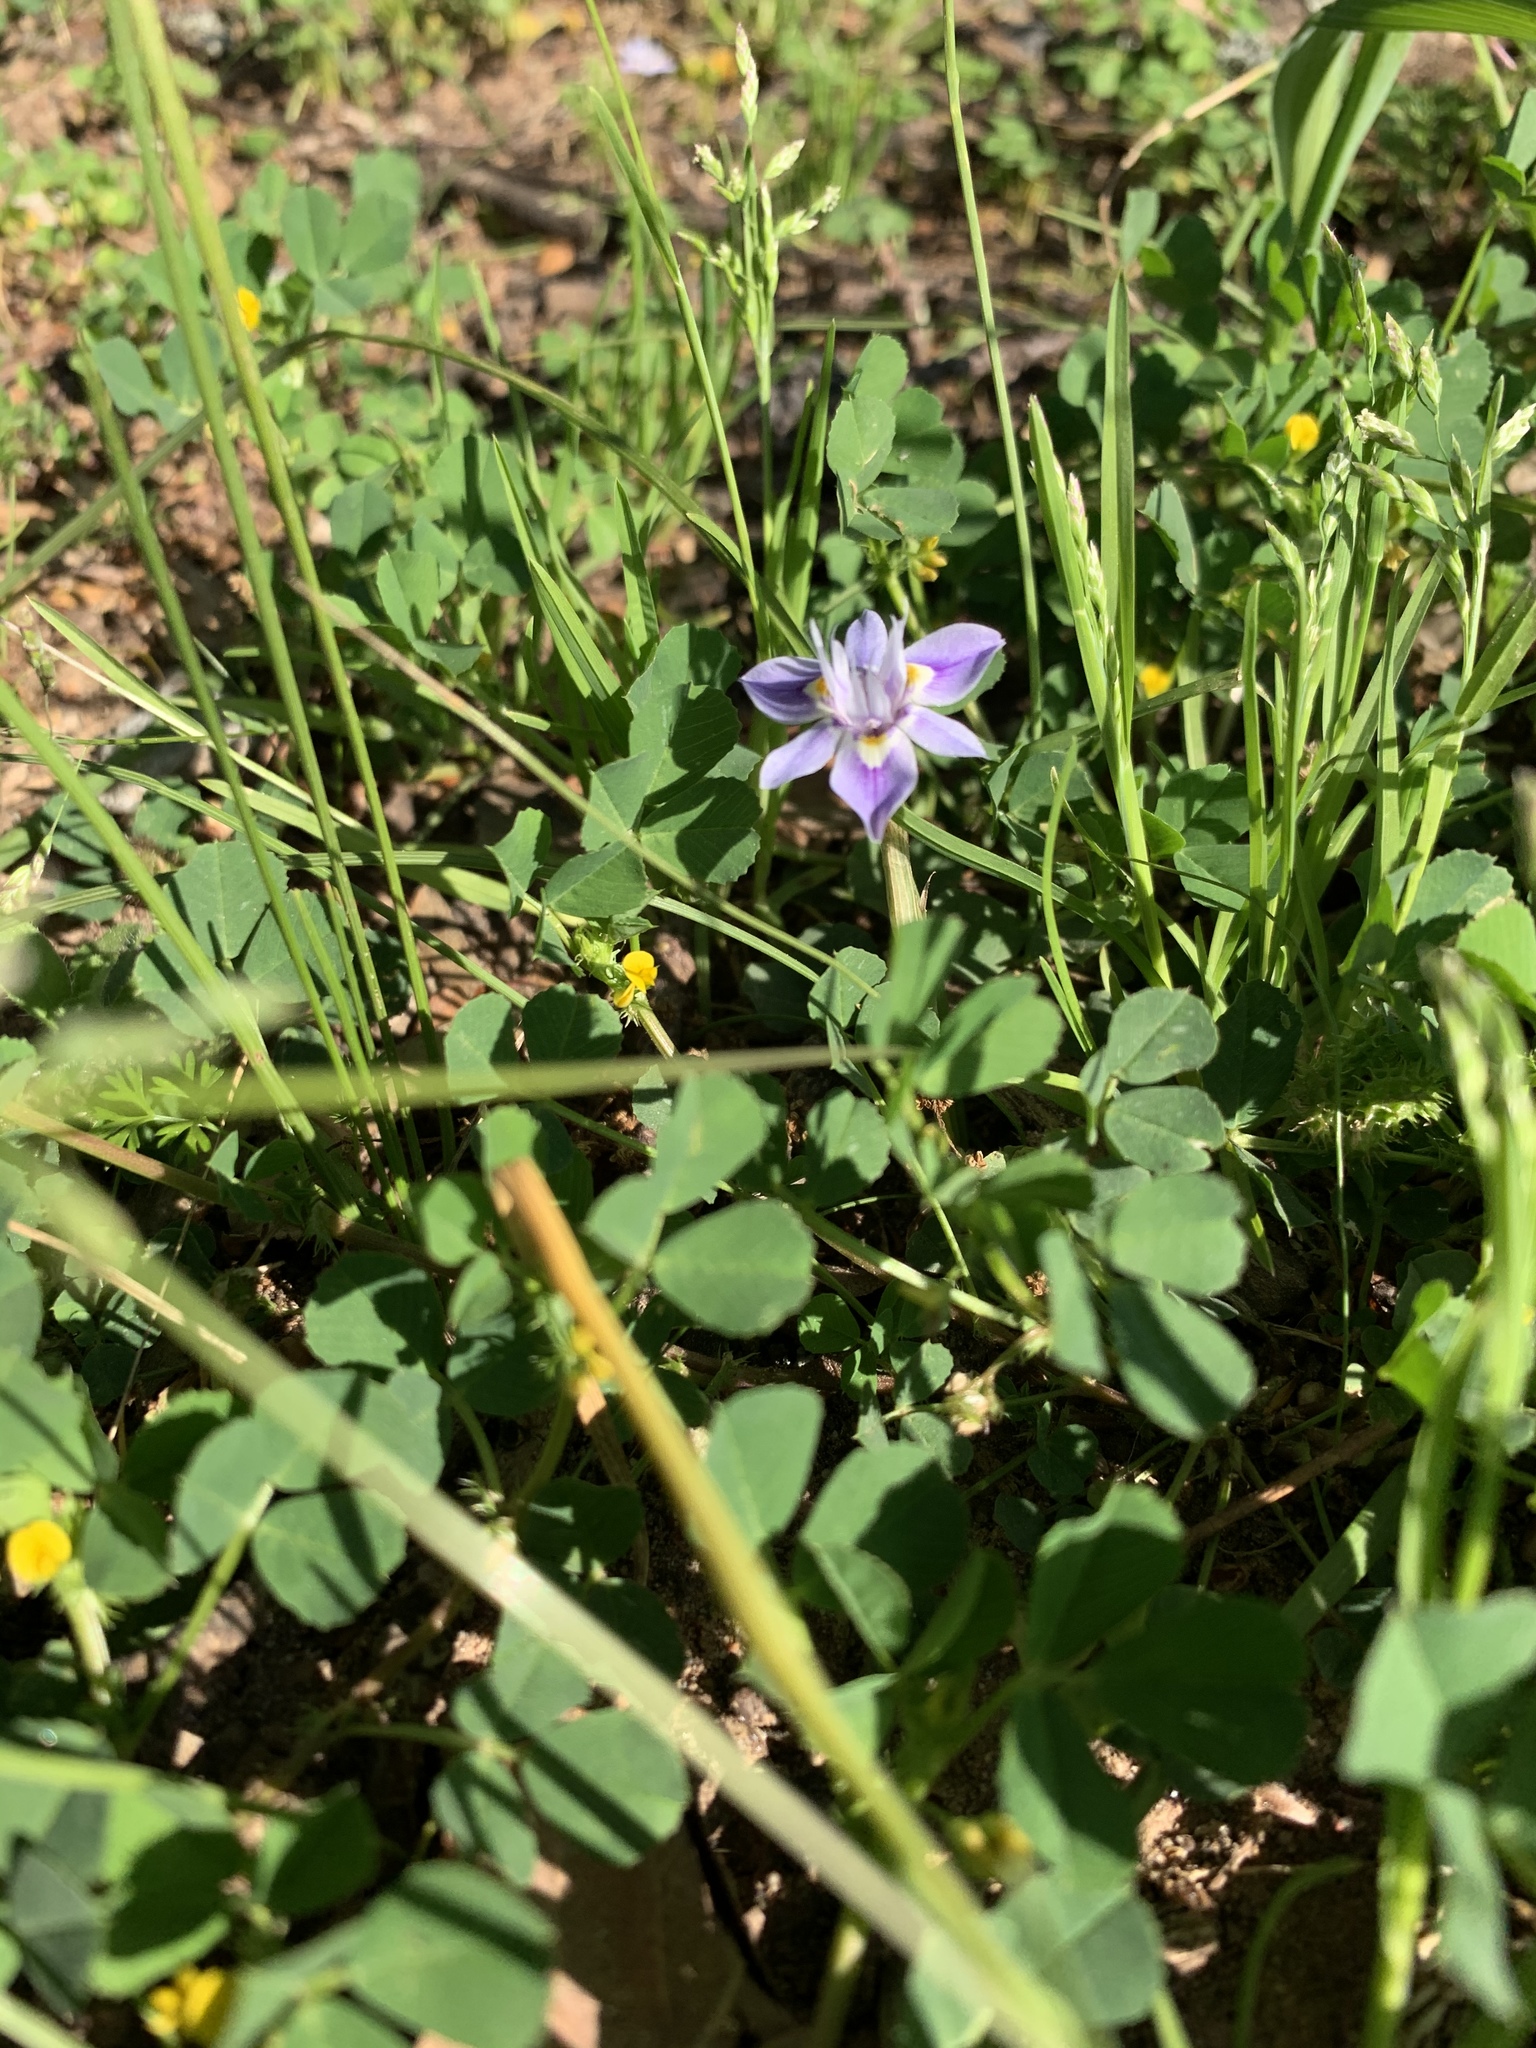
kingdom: Plantae
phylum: Tracheophyta
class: Liliopsida
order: Asparagales
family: Iridaceae
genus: Moraea
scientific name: Moraea setifolia
